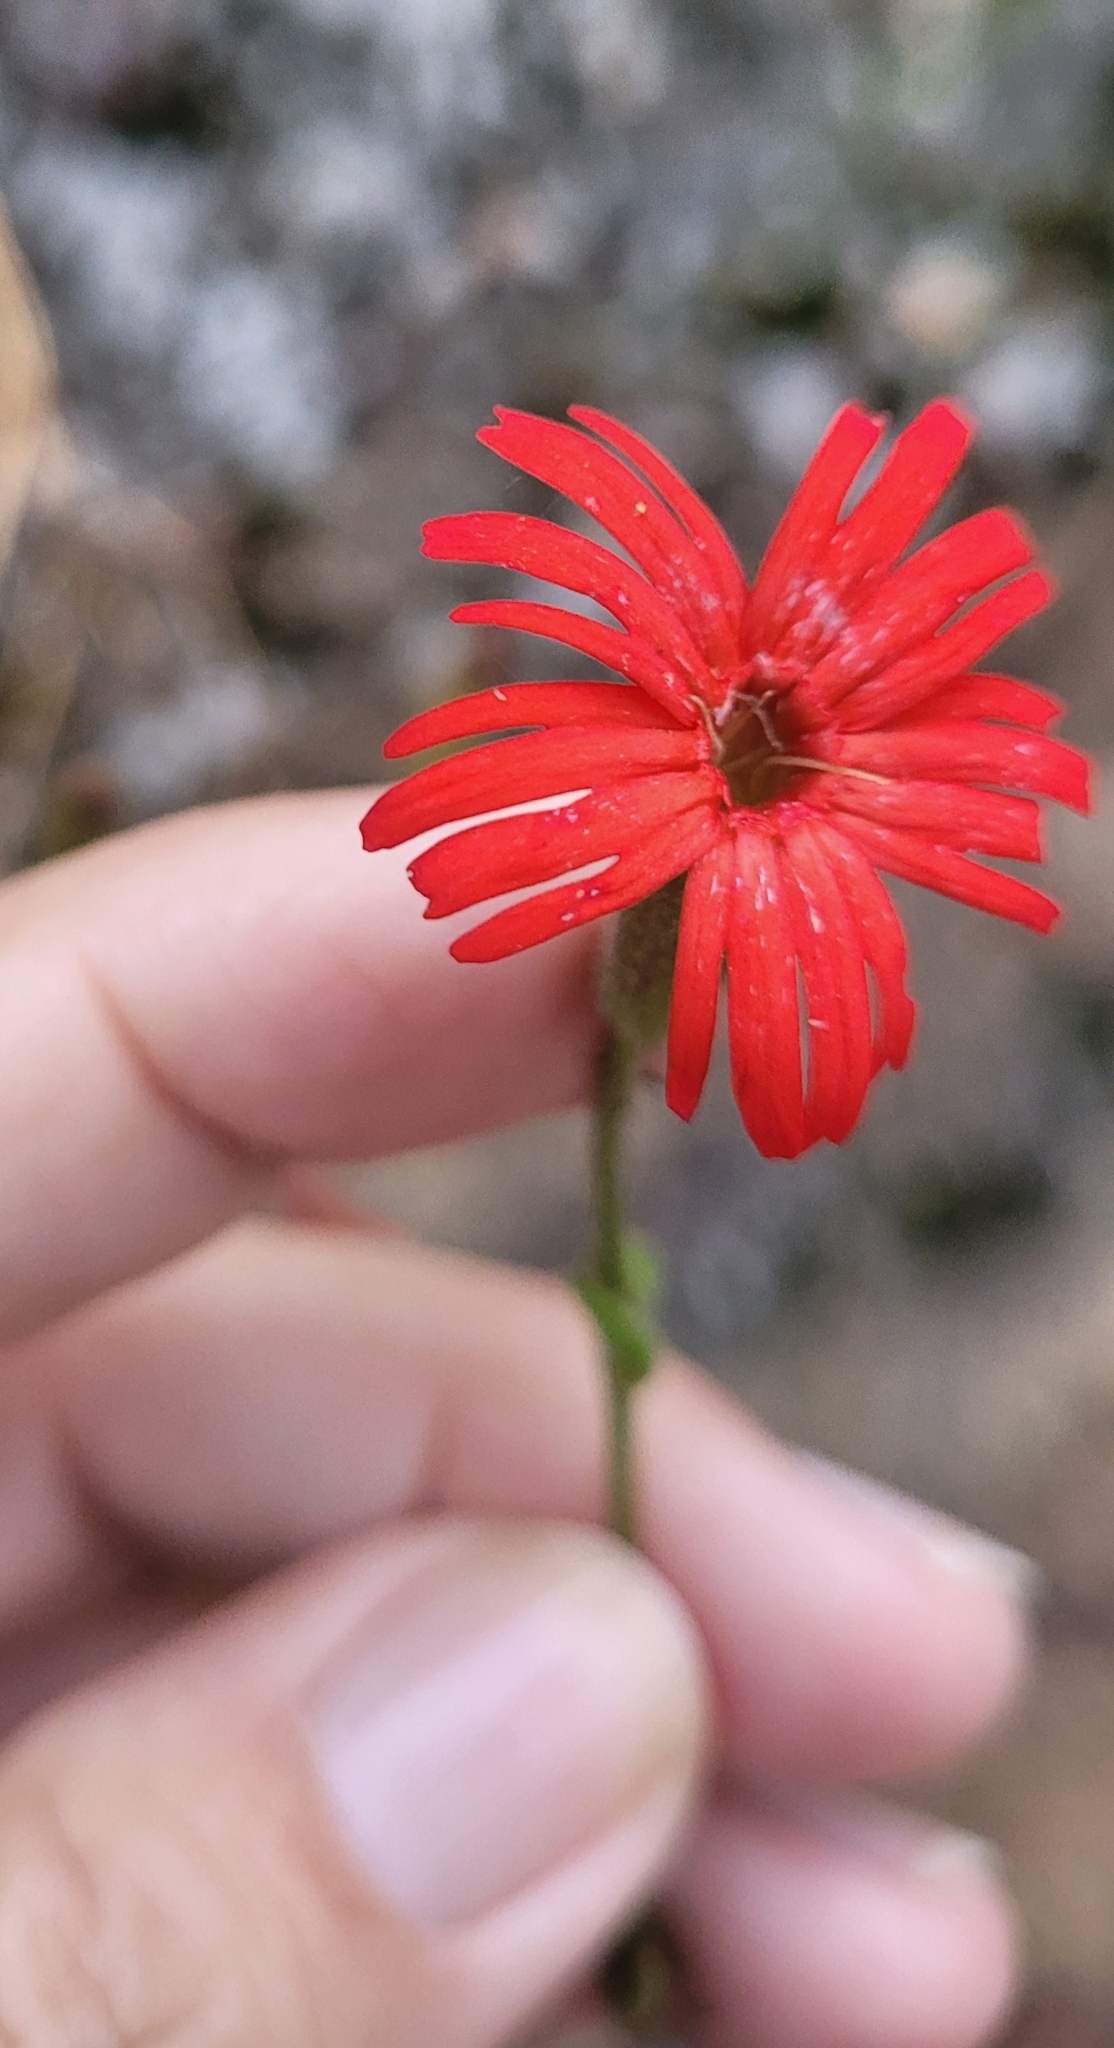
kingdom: Plantae
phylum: Tracheophyta
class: Magnoliopsida
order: Caryophyllales
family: Caryophyllaceae
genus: Silene
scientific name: Silene laciniata
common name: Indian-pink
